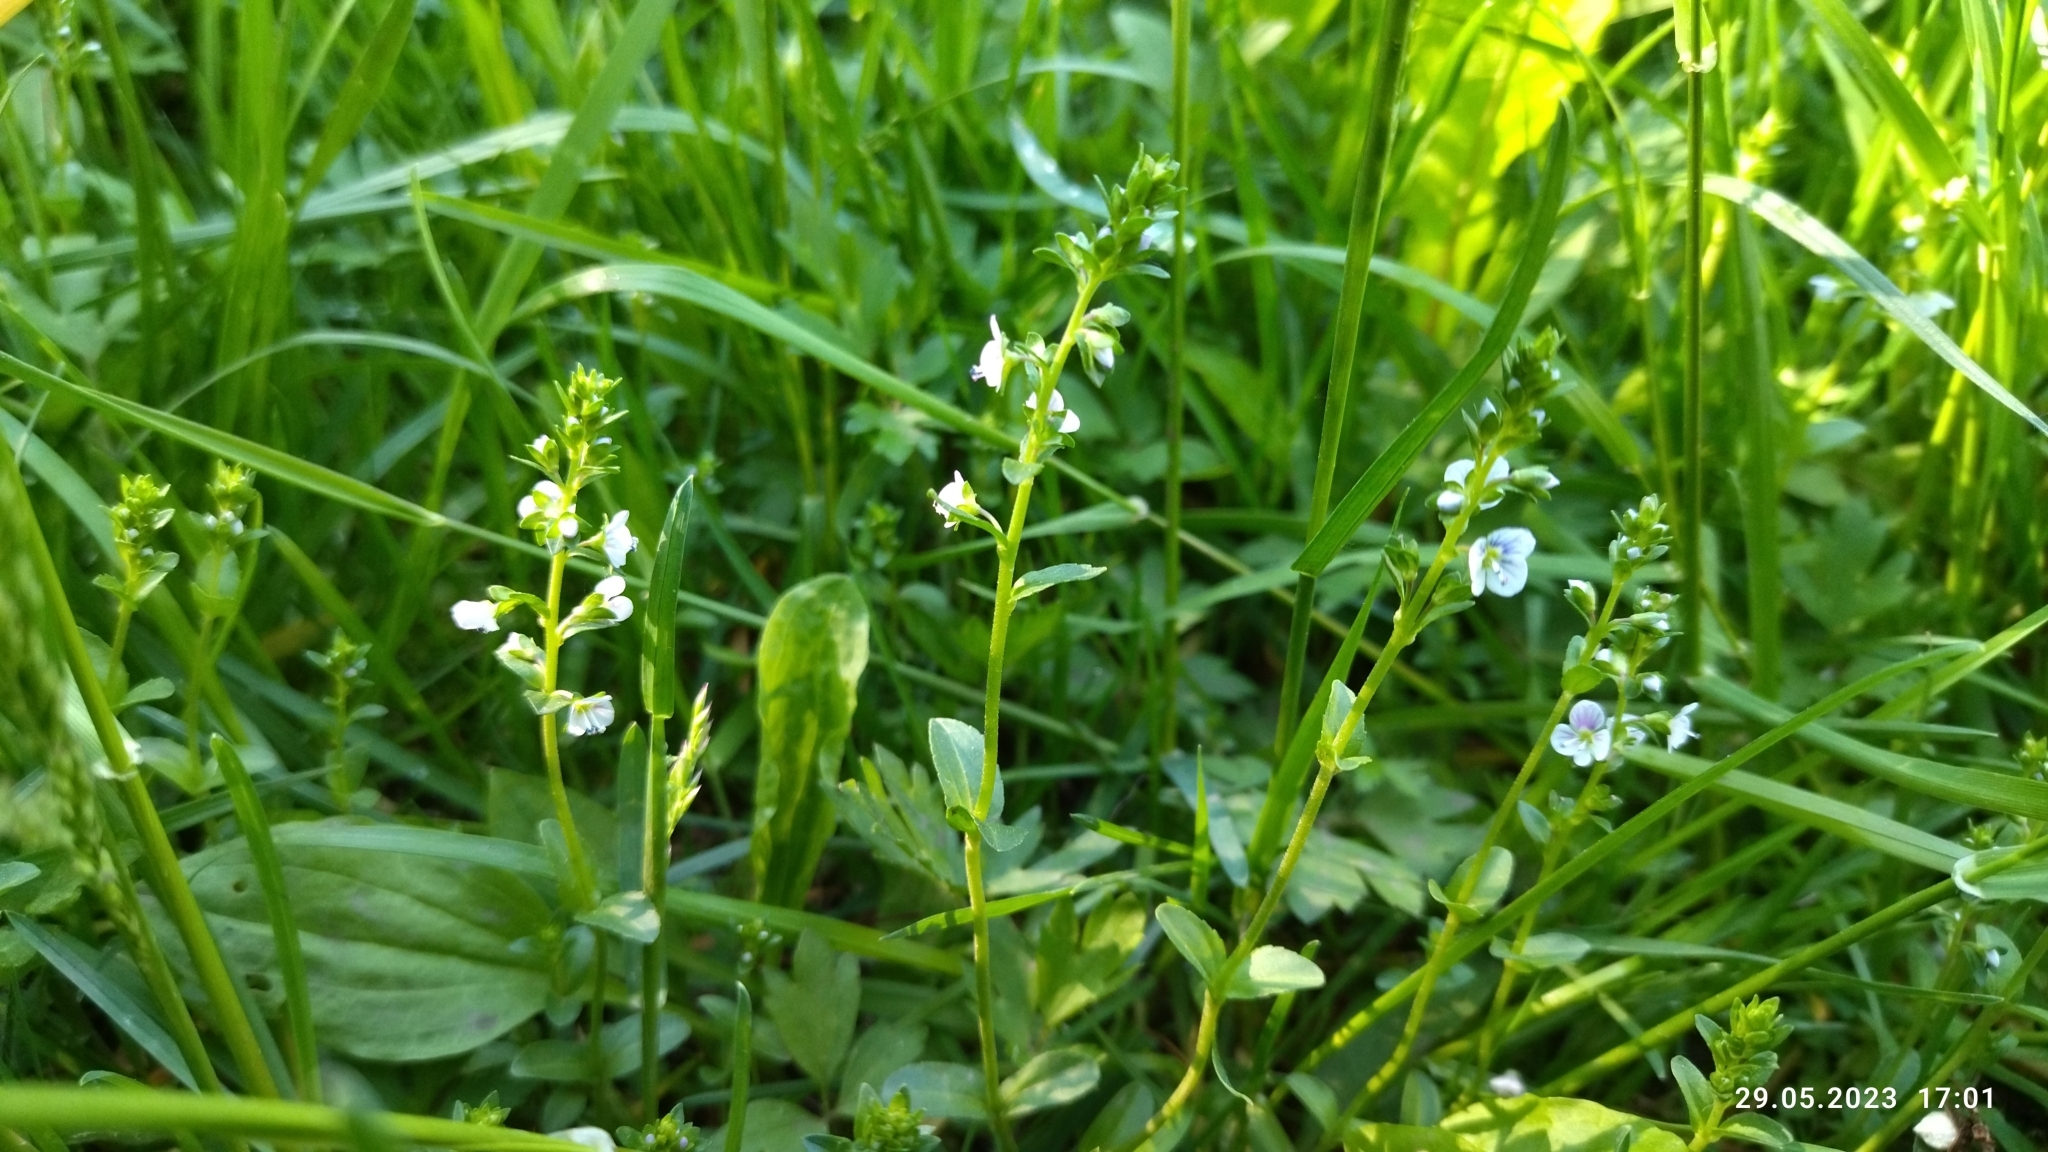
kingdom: Plantae
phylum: Tracheophyta
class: Magnoliopsida
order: Lamiales
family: Plantaginaceae
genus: Veronica
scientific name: Veronica serpyllifolia
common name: Thyme-leaved speedwell
